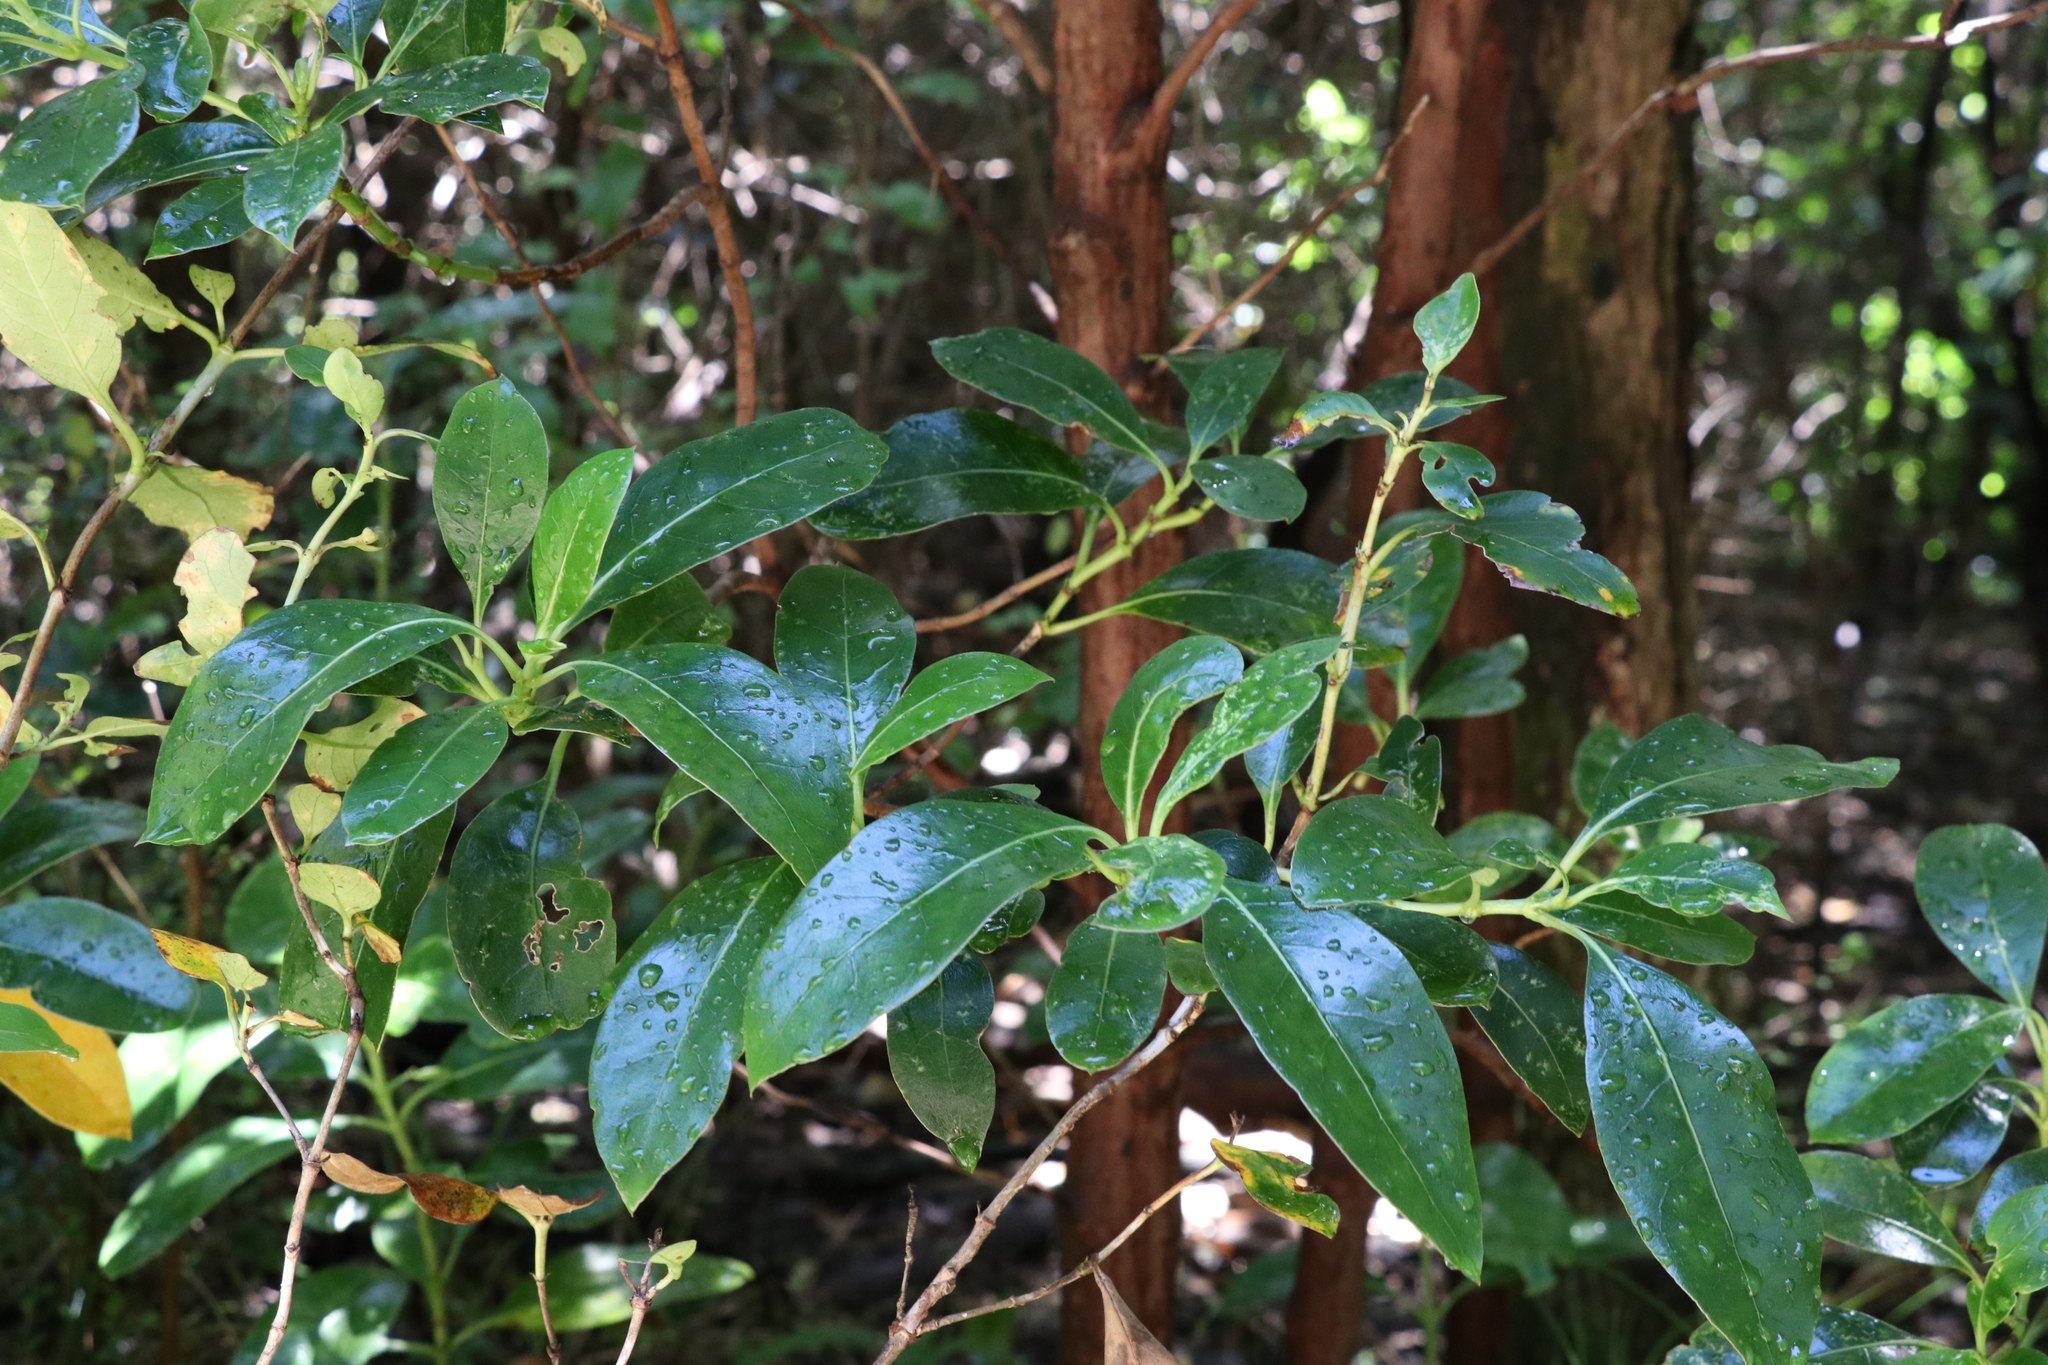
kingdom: Plantae
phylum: Tracheophyta
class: Magnoliopsida
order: Gentianales
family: Rubiaceae
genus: Coprosma
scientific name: Coprosma lucida
